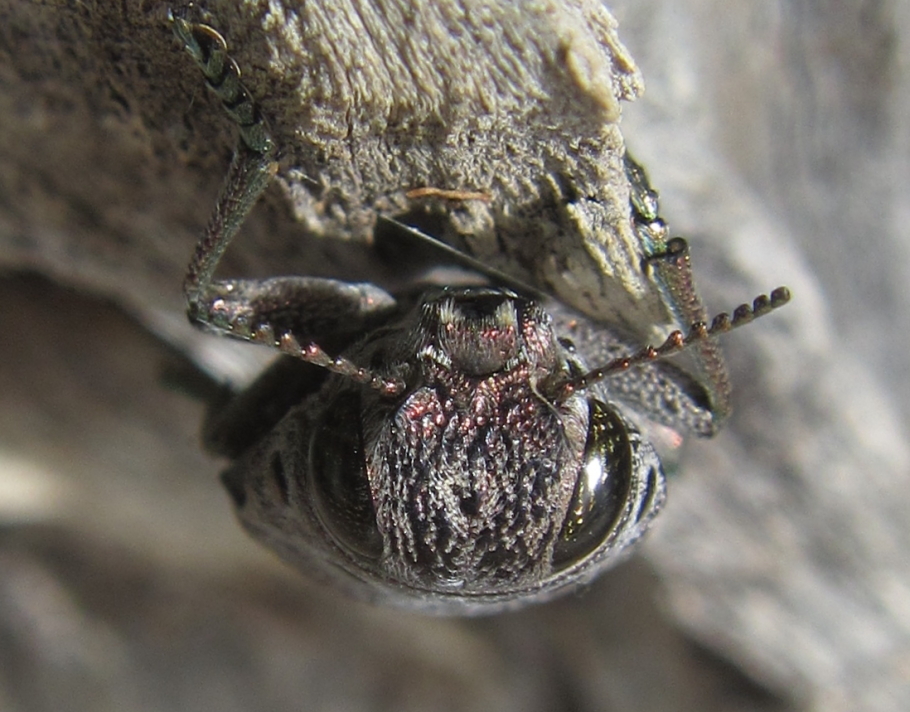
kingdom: Animalia
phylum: Arthropoda
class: Insecta
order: Coleoptera
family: Buprestidae
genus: Lampetis
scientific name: Lampetis quadriareolata
